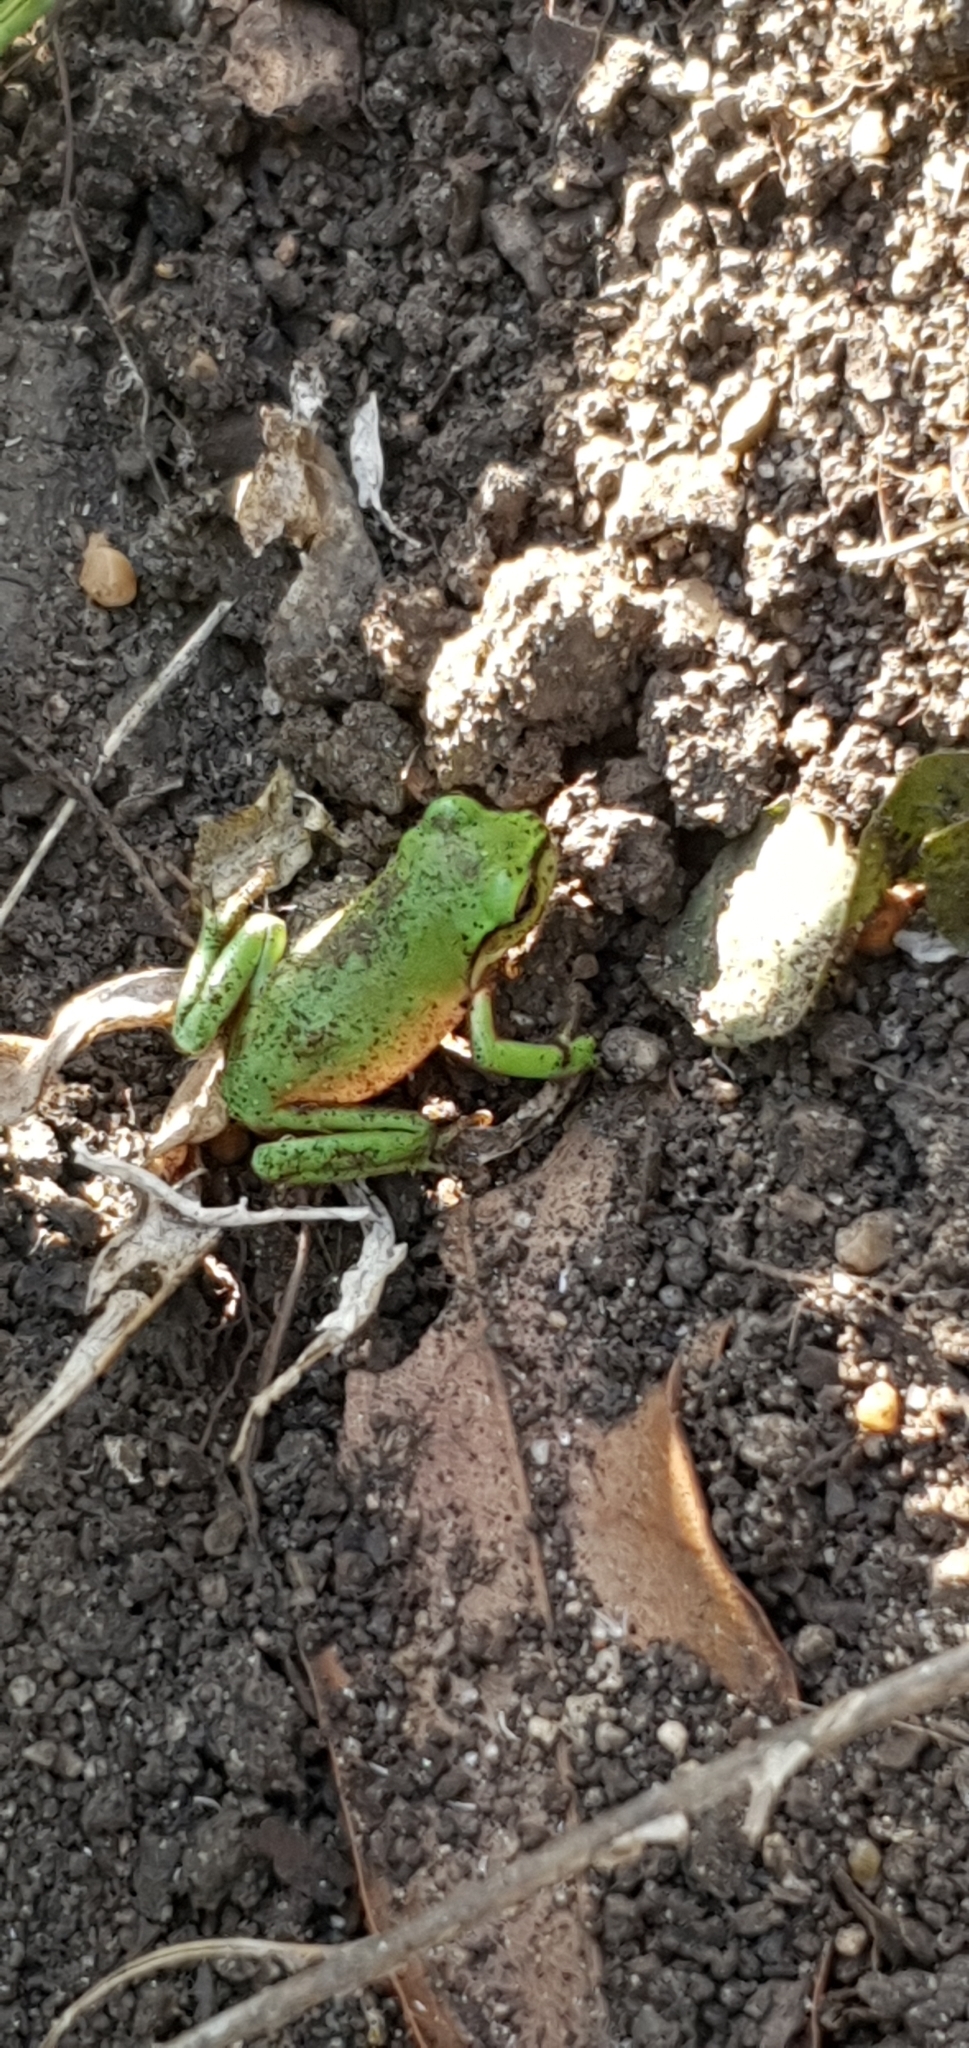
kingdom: Animalia
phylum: Chordata
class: Amphibia
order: Anura
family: Pelodryadidae
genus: Ranoidea
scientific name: Ranoidea caerulea
